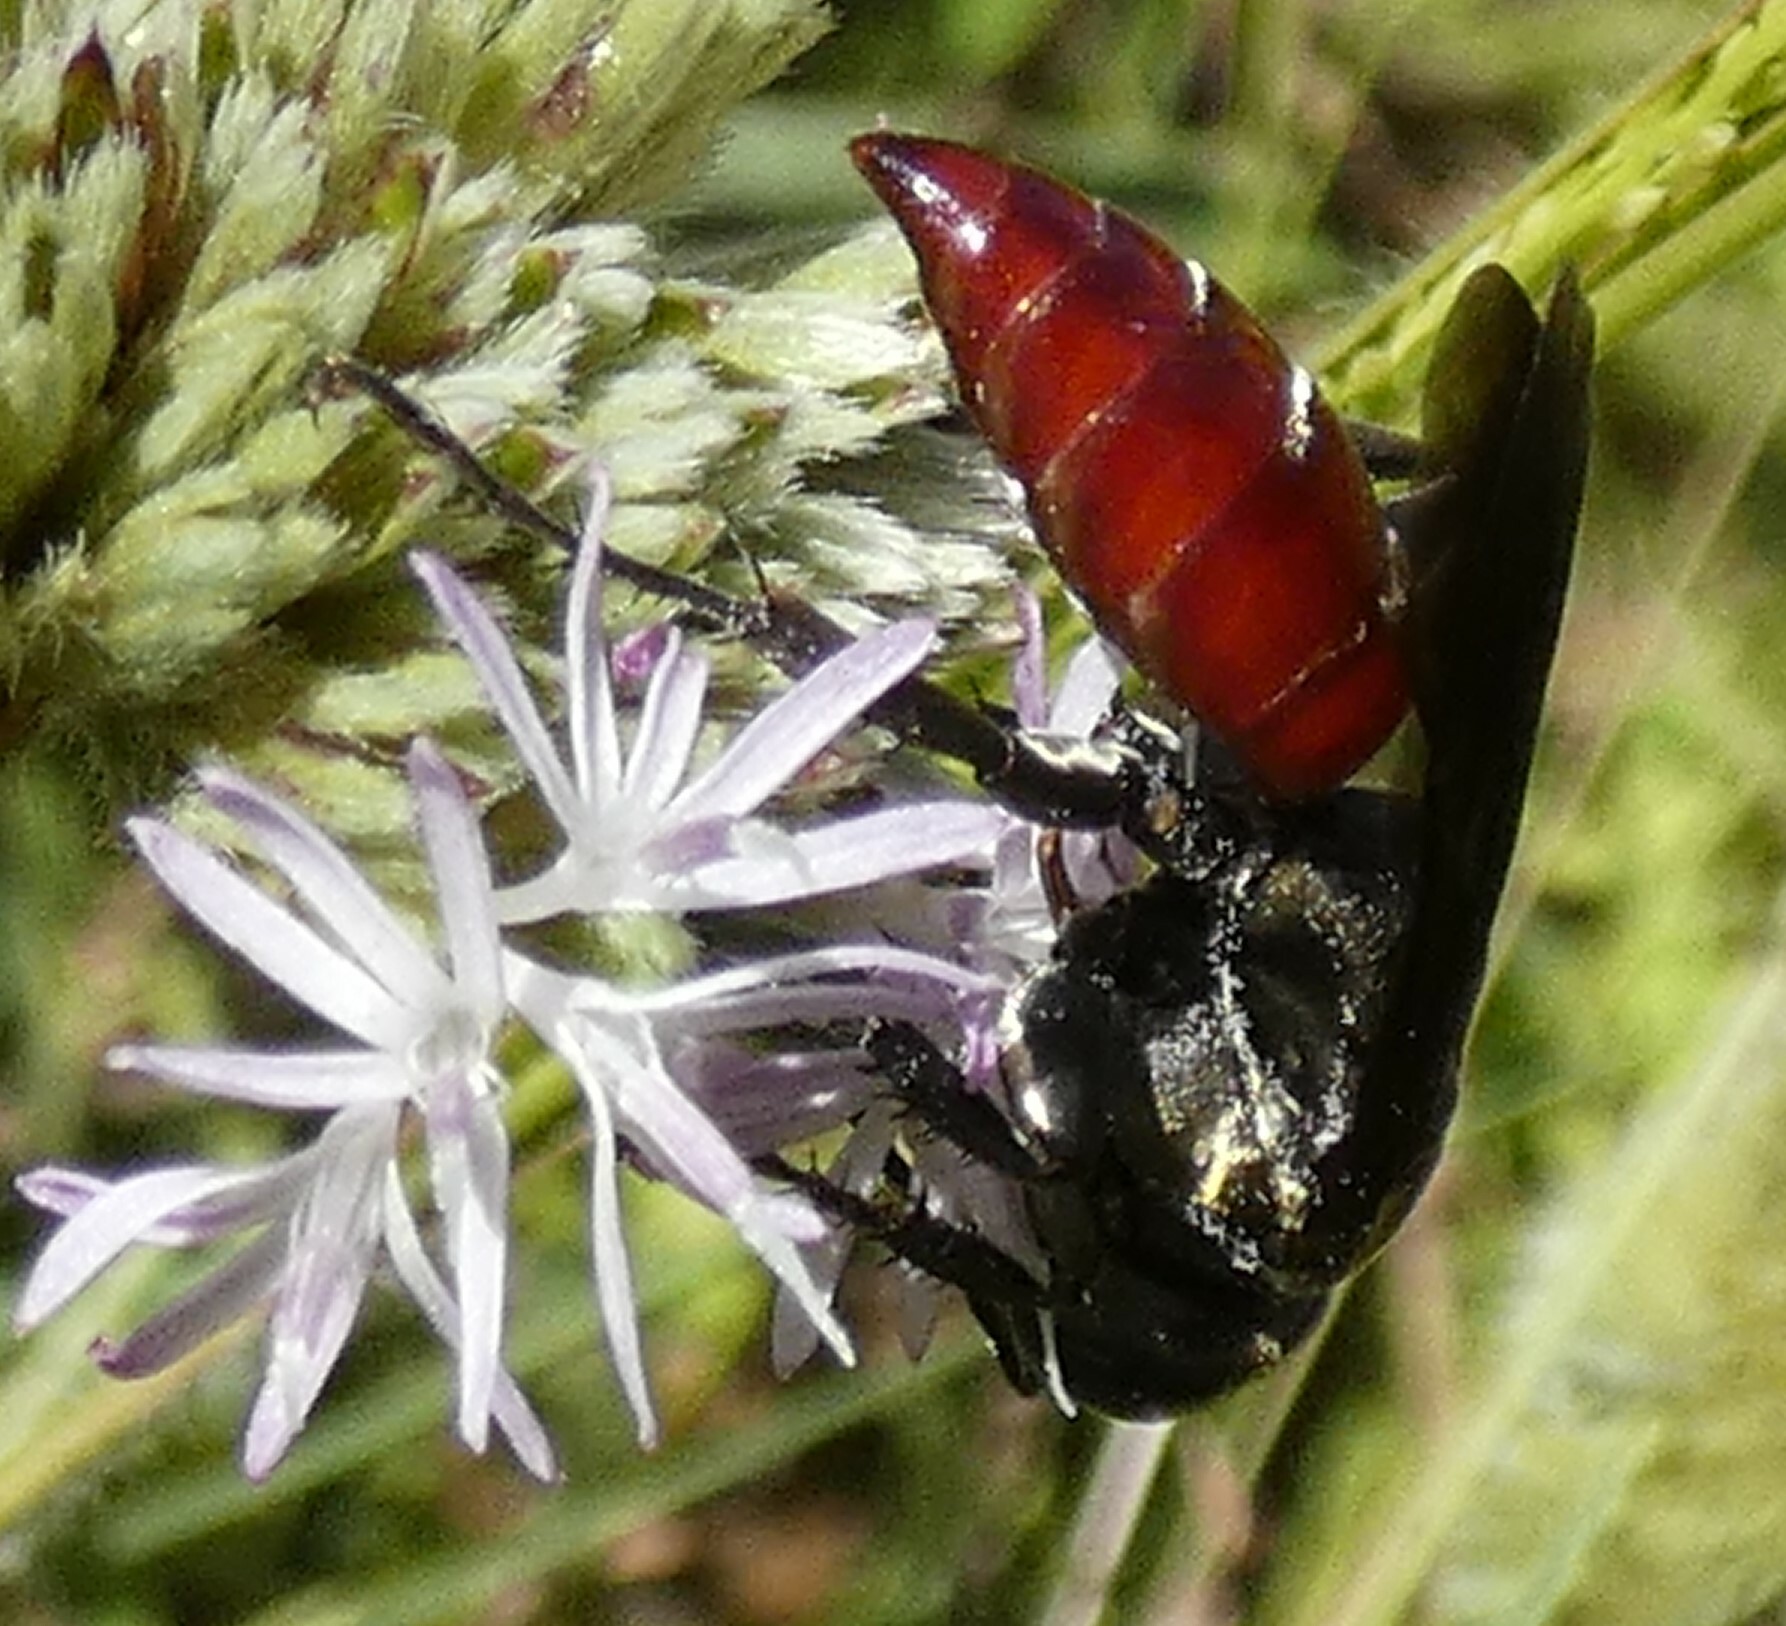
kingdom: Animalia
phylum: Arthropoda
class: Insecta
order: Hymenoptera
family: Crabronidae
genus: Larra
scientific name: Larra bicolor
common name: Wasp
